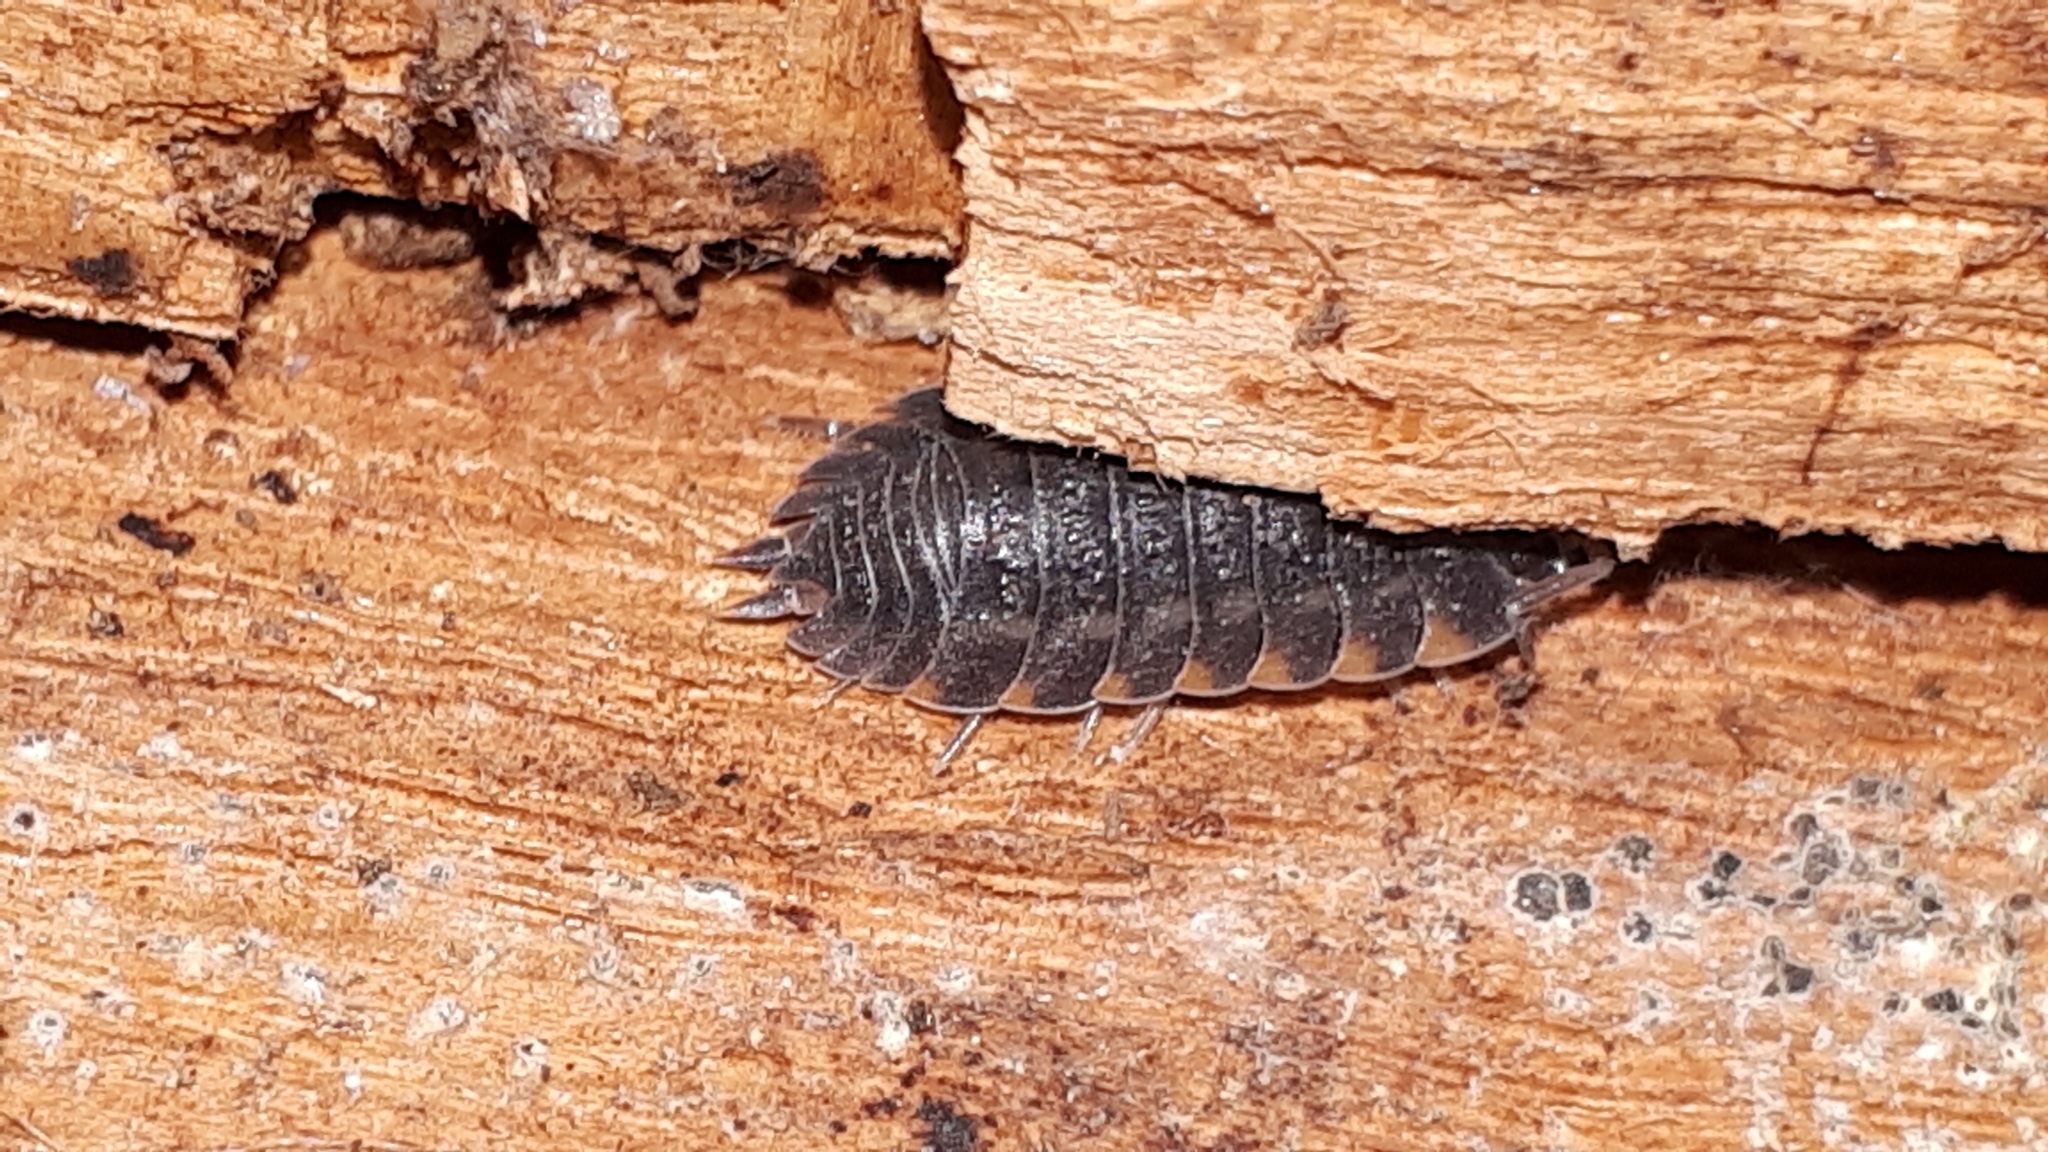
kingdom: Animalia
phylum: Arthropoda
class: Malacostraca
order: Isopoda
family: Trachelipodidae
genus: Trachelipus
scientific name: Trachelipus ratzeburgii
